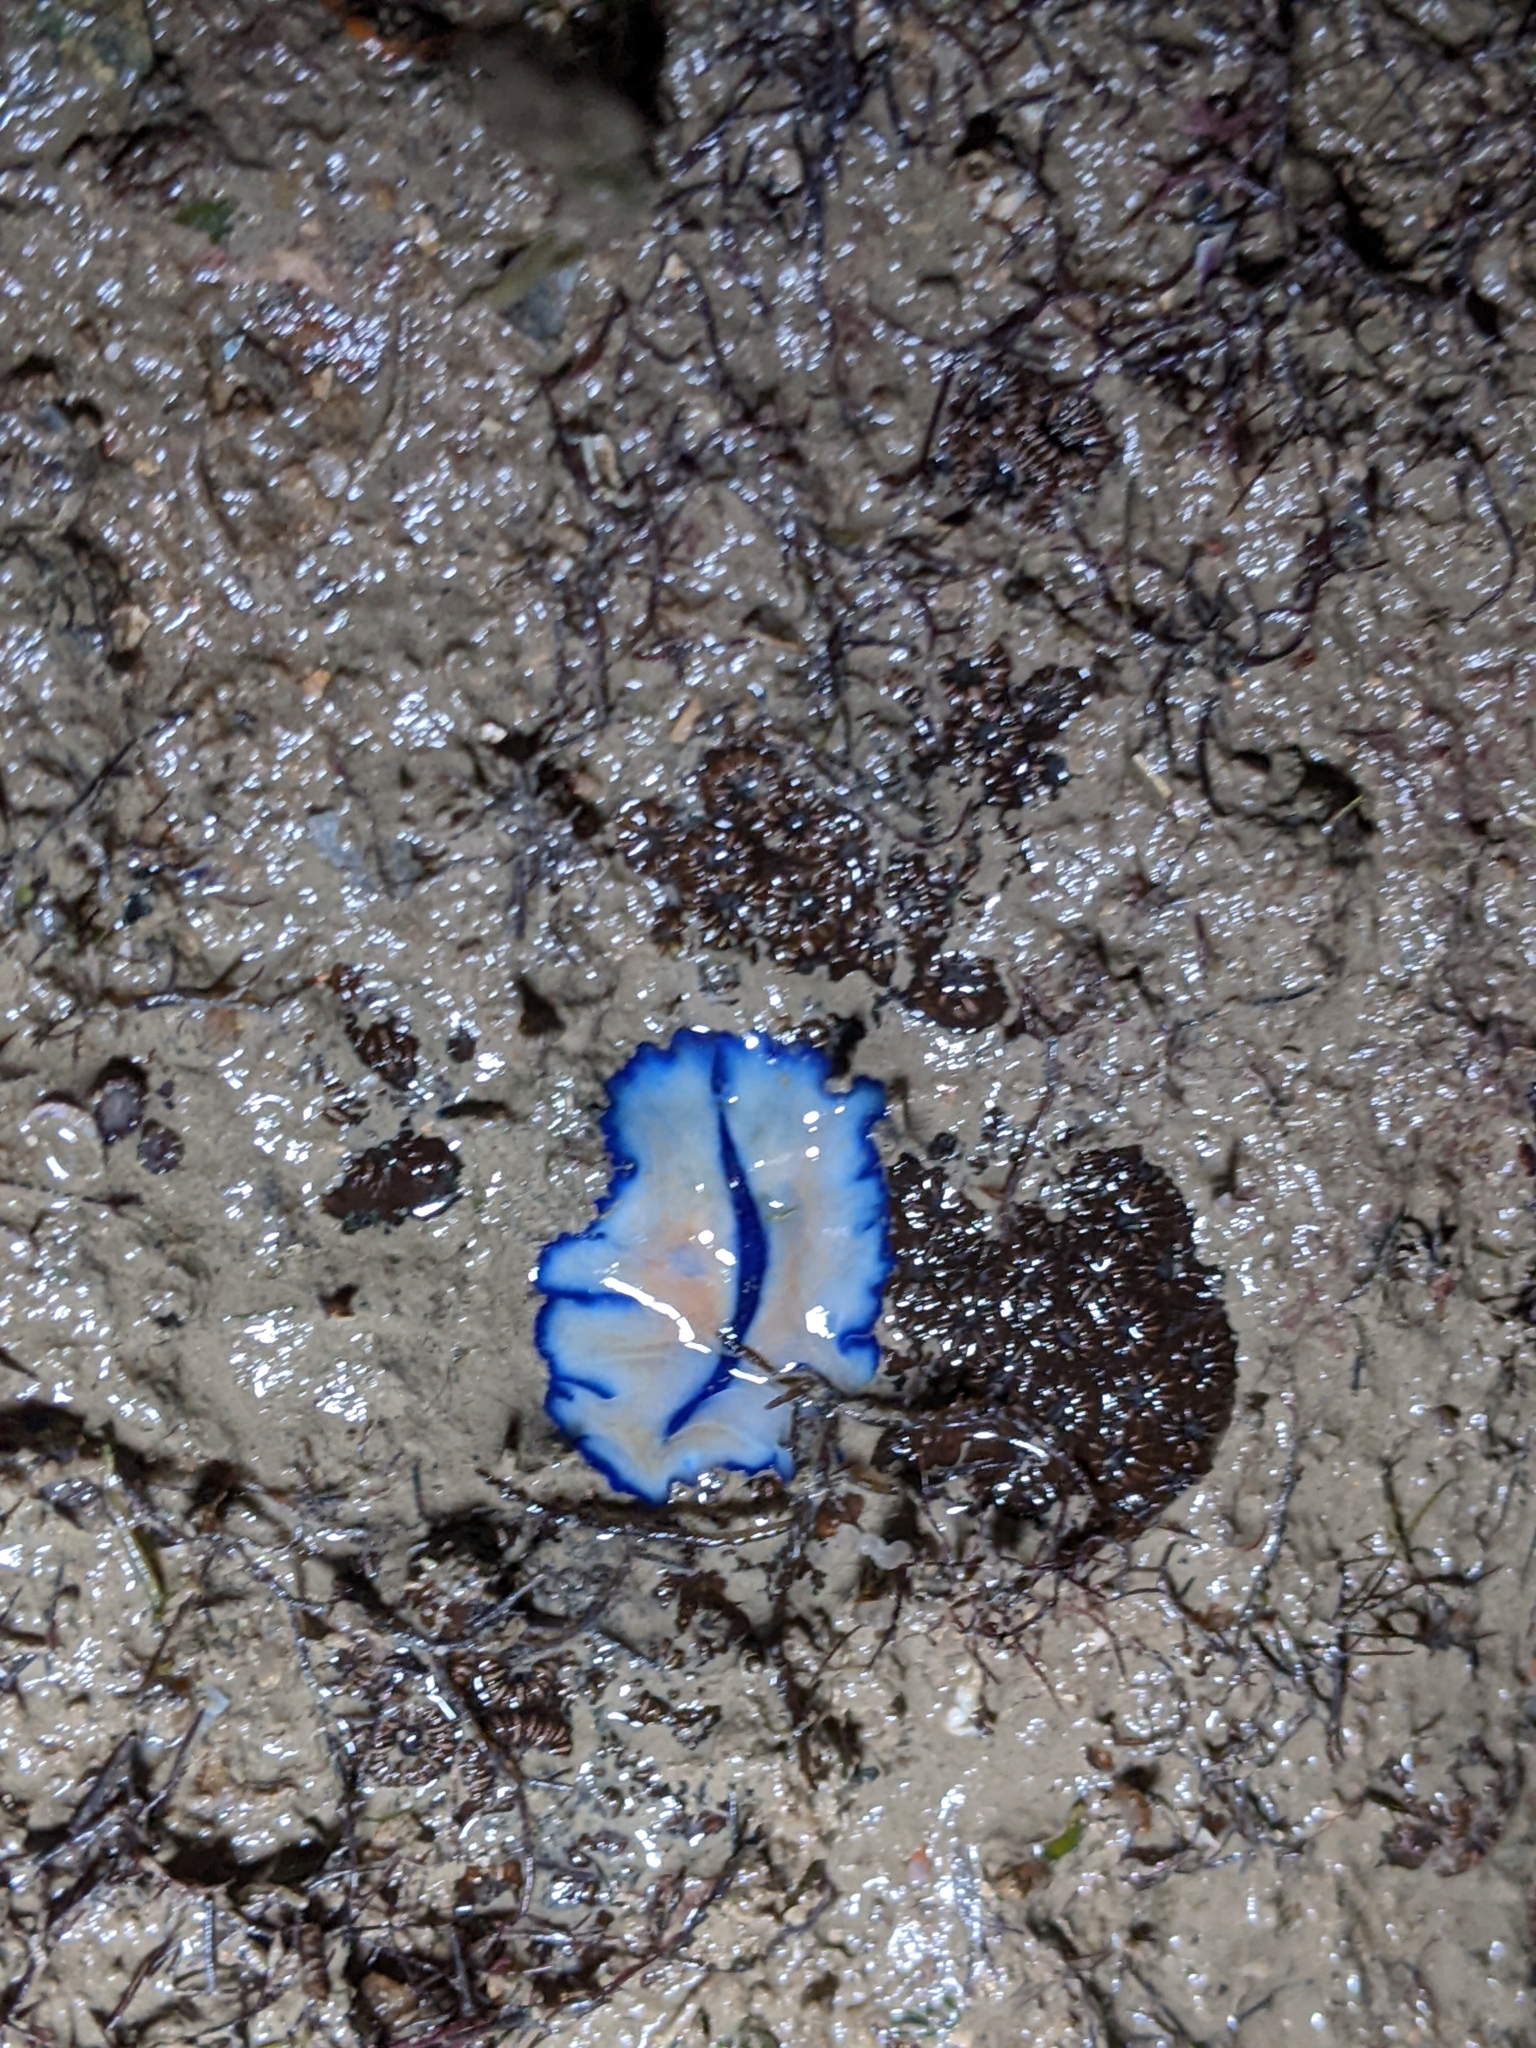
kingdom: Animalia
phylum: Platyhelminthes
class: Turbellaria
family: Pseudocerotidae
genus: Pseudoceros
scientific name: Pseudoceros concinnus
